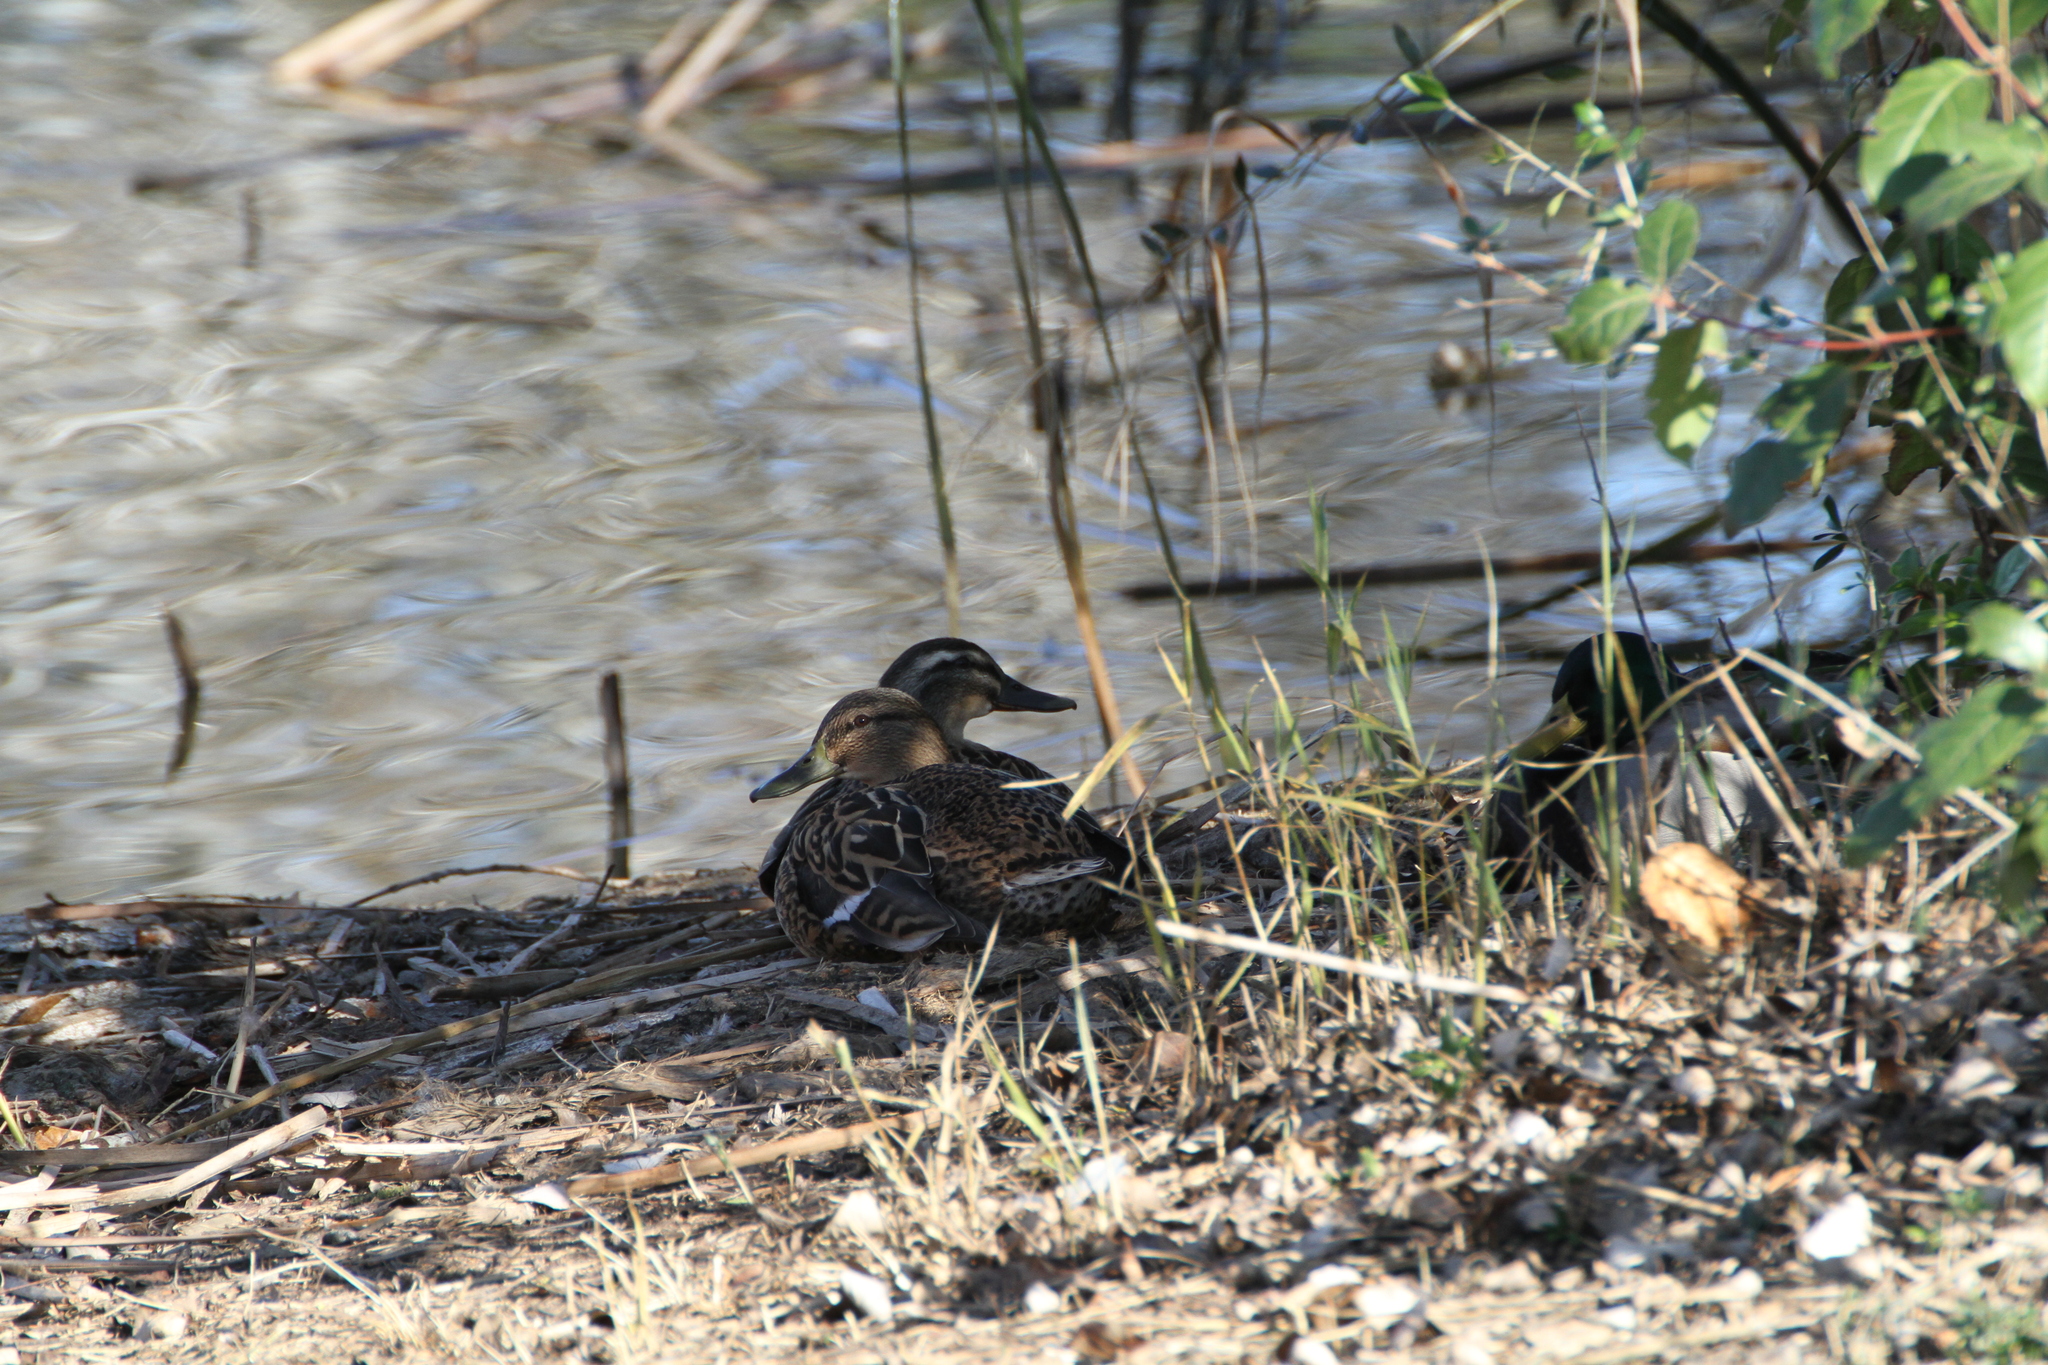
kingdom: Animalia
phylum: Chordata
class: Aves
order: Anseriformes
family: Anatidae
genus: Anas
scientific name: Anas platyrhynchos
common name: Mallard
